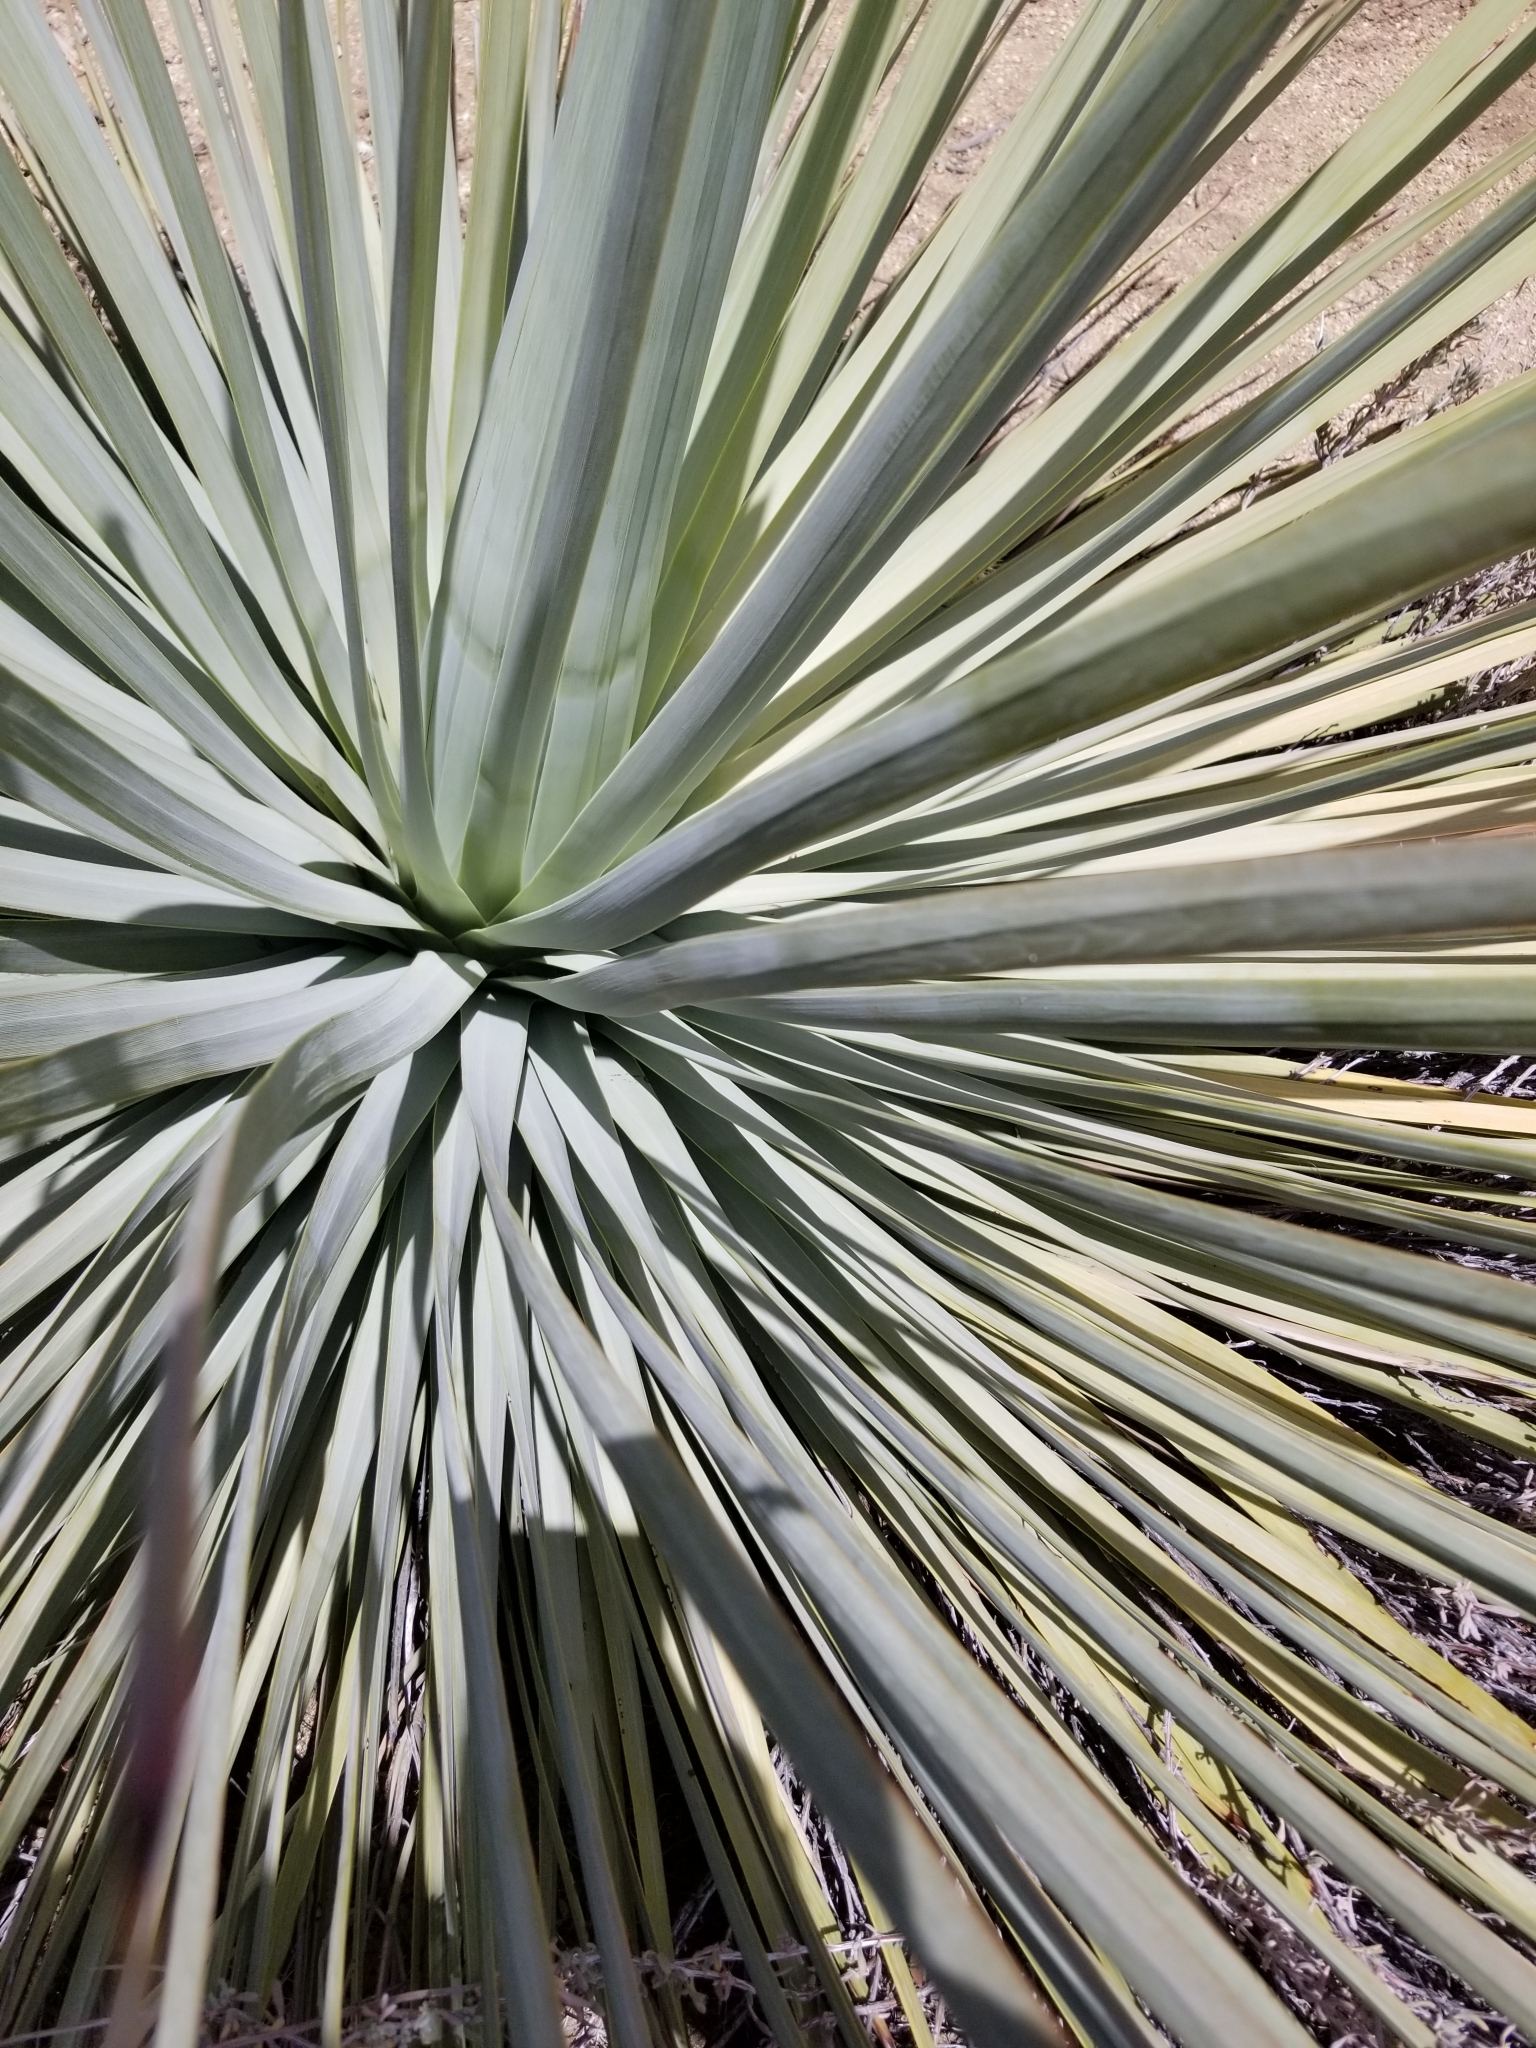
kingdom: Plantae
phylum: Tracheophyta
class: Liliopsida
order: Asparagales
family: Asparagaceae
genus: Hesperoyucca
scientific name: Hesperoyucca whipplei
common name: Our lord's-candle
